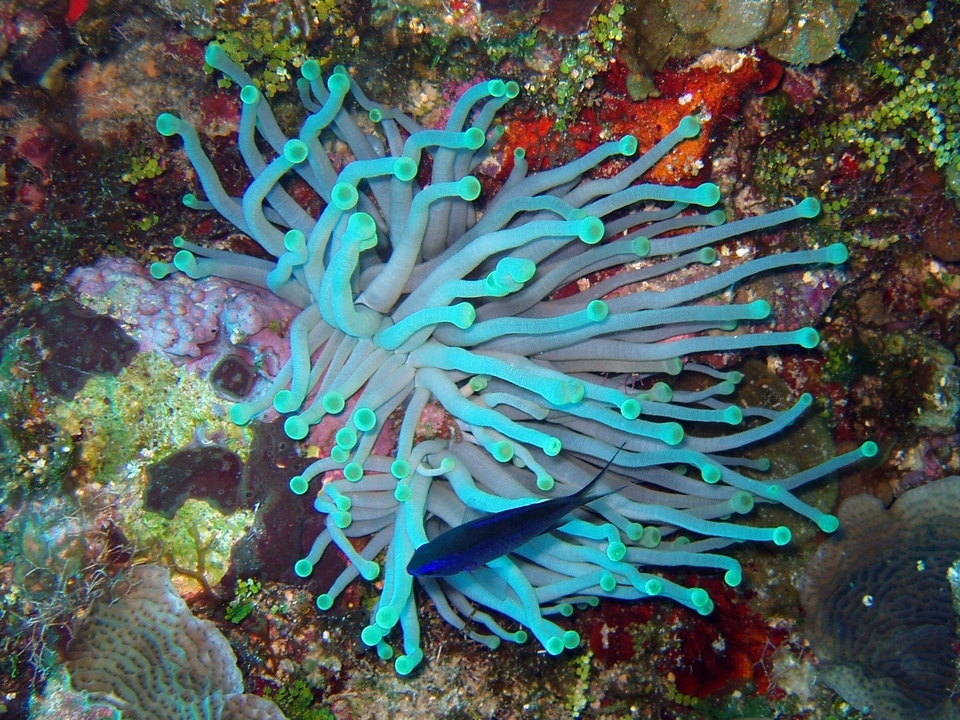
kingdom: Animalia
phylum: Chordata
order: Perciformes
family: Pomacentridae
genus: Chromis
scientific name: Chromis cyanea
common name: Blue chromis
